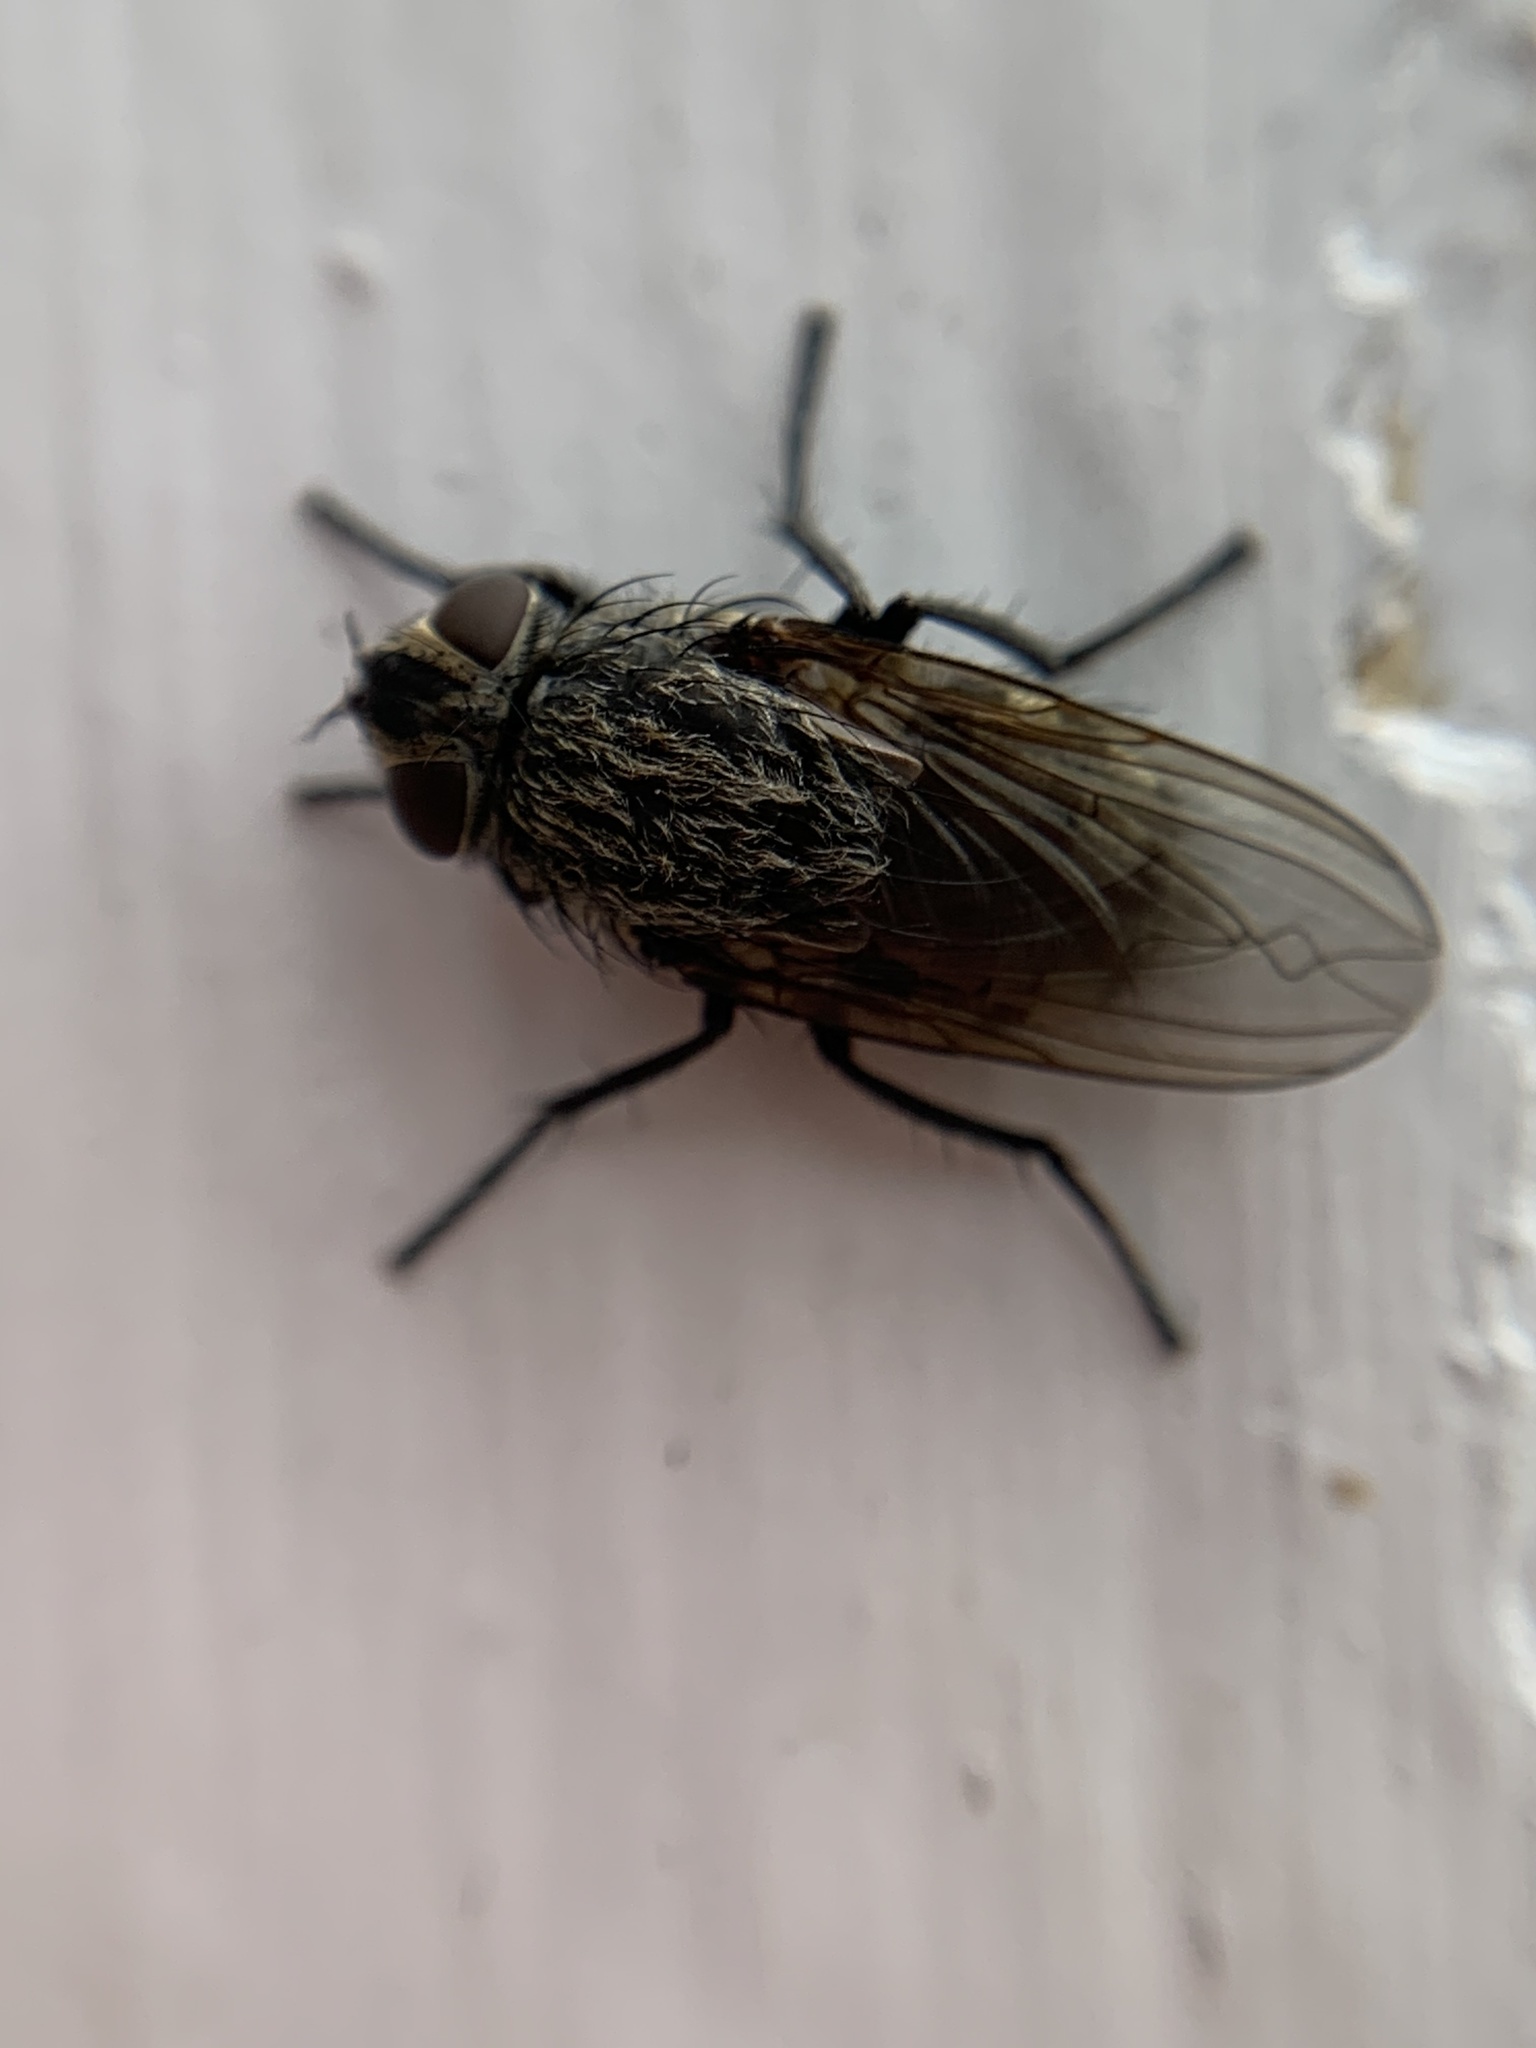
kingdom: Animalia
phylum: Arthropoda
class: Insecta
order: Diptera
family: Polleniidae
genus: Pollenia
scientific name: Pollenia
